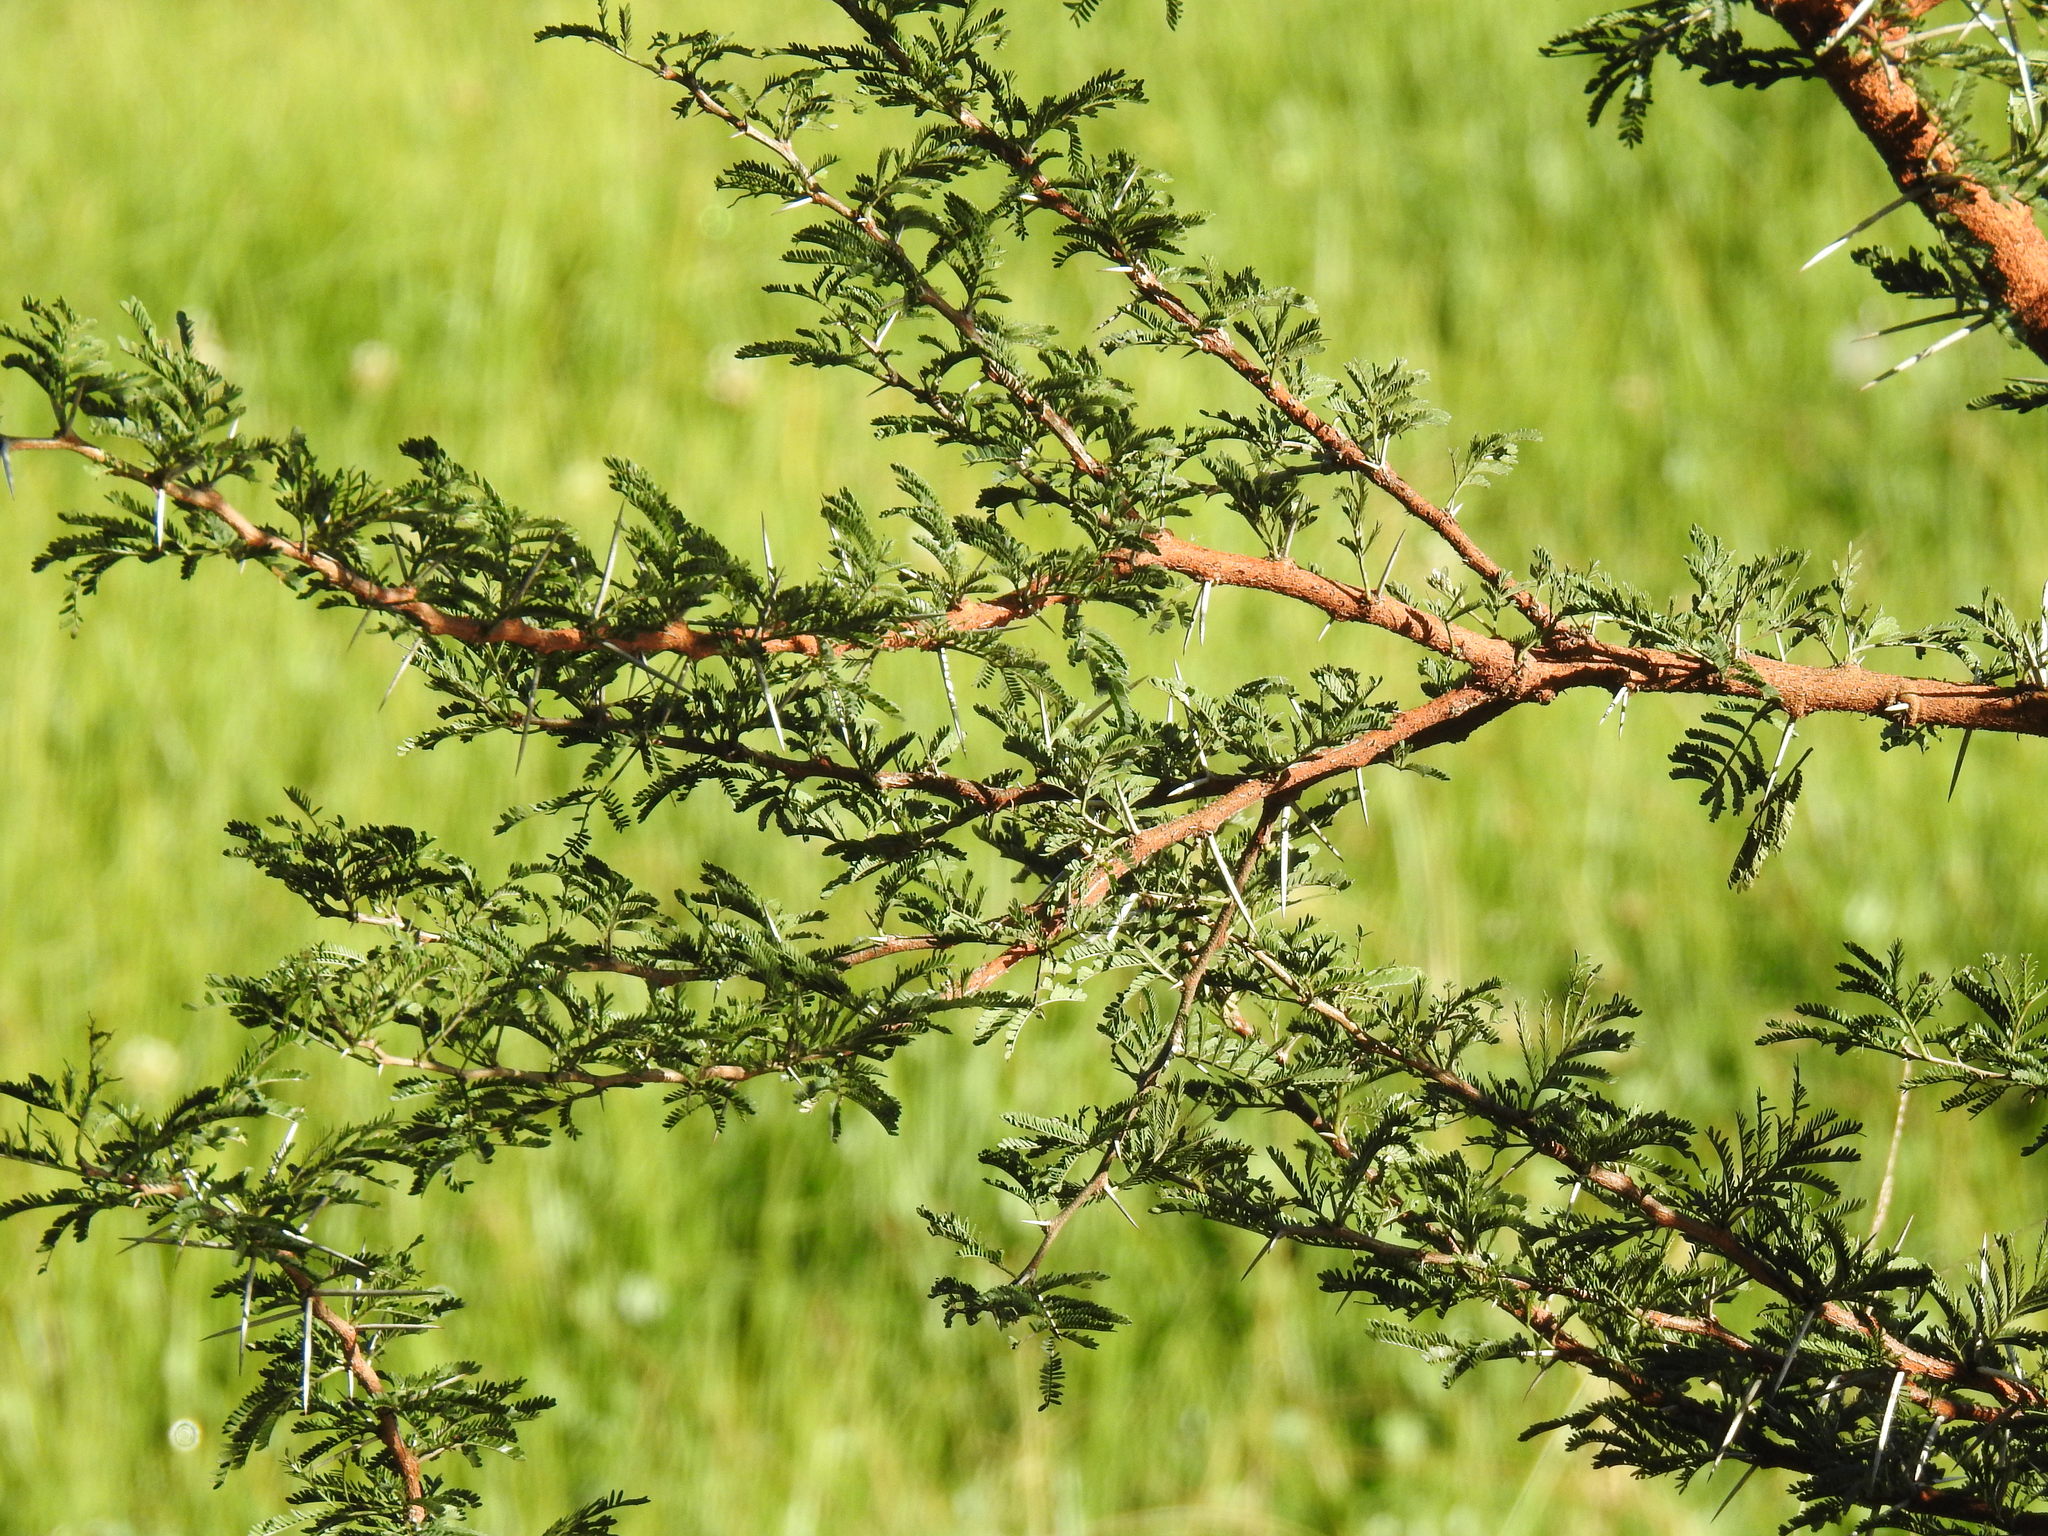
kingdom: Plantae
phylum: Tracheophyta
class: Magnoliopsida
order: Fabales
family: Fabaceae
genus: Vachellia
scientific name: Vachellia karroo
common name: Sweet thorn
